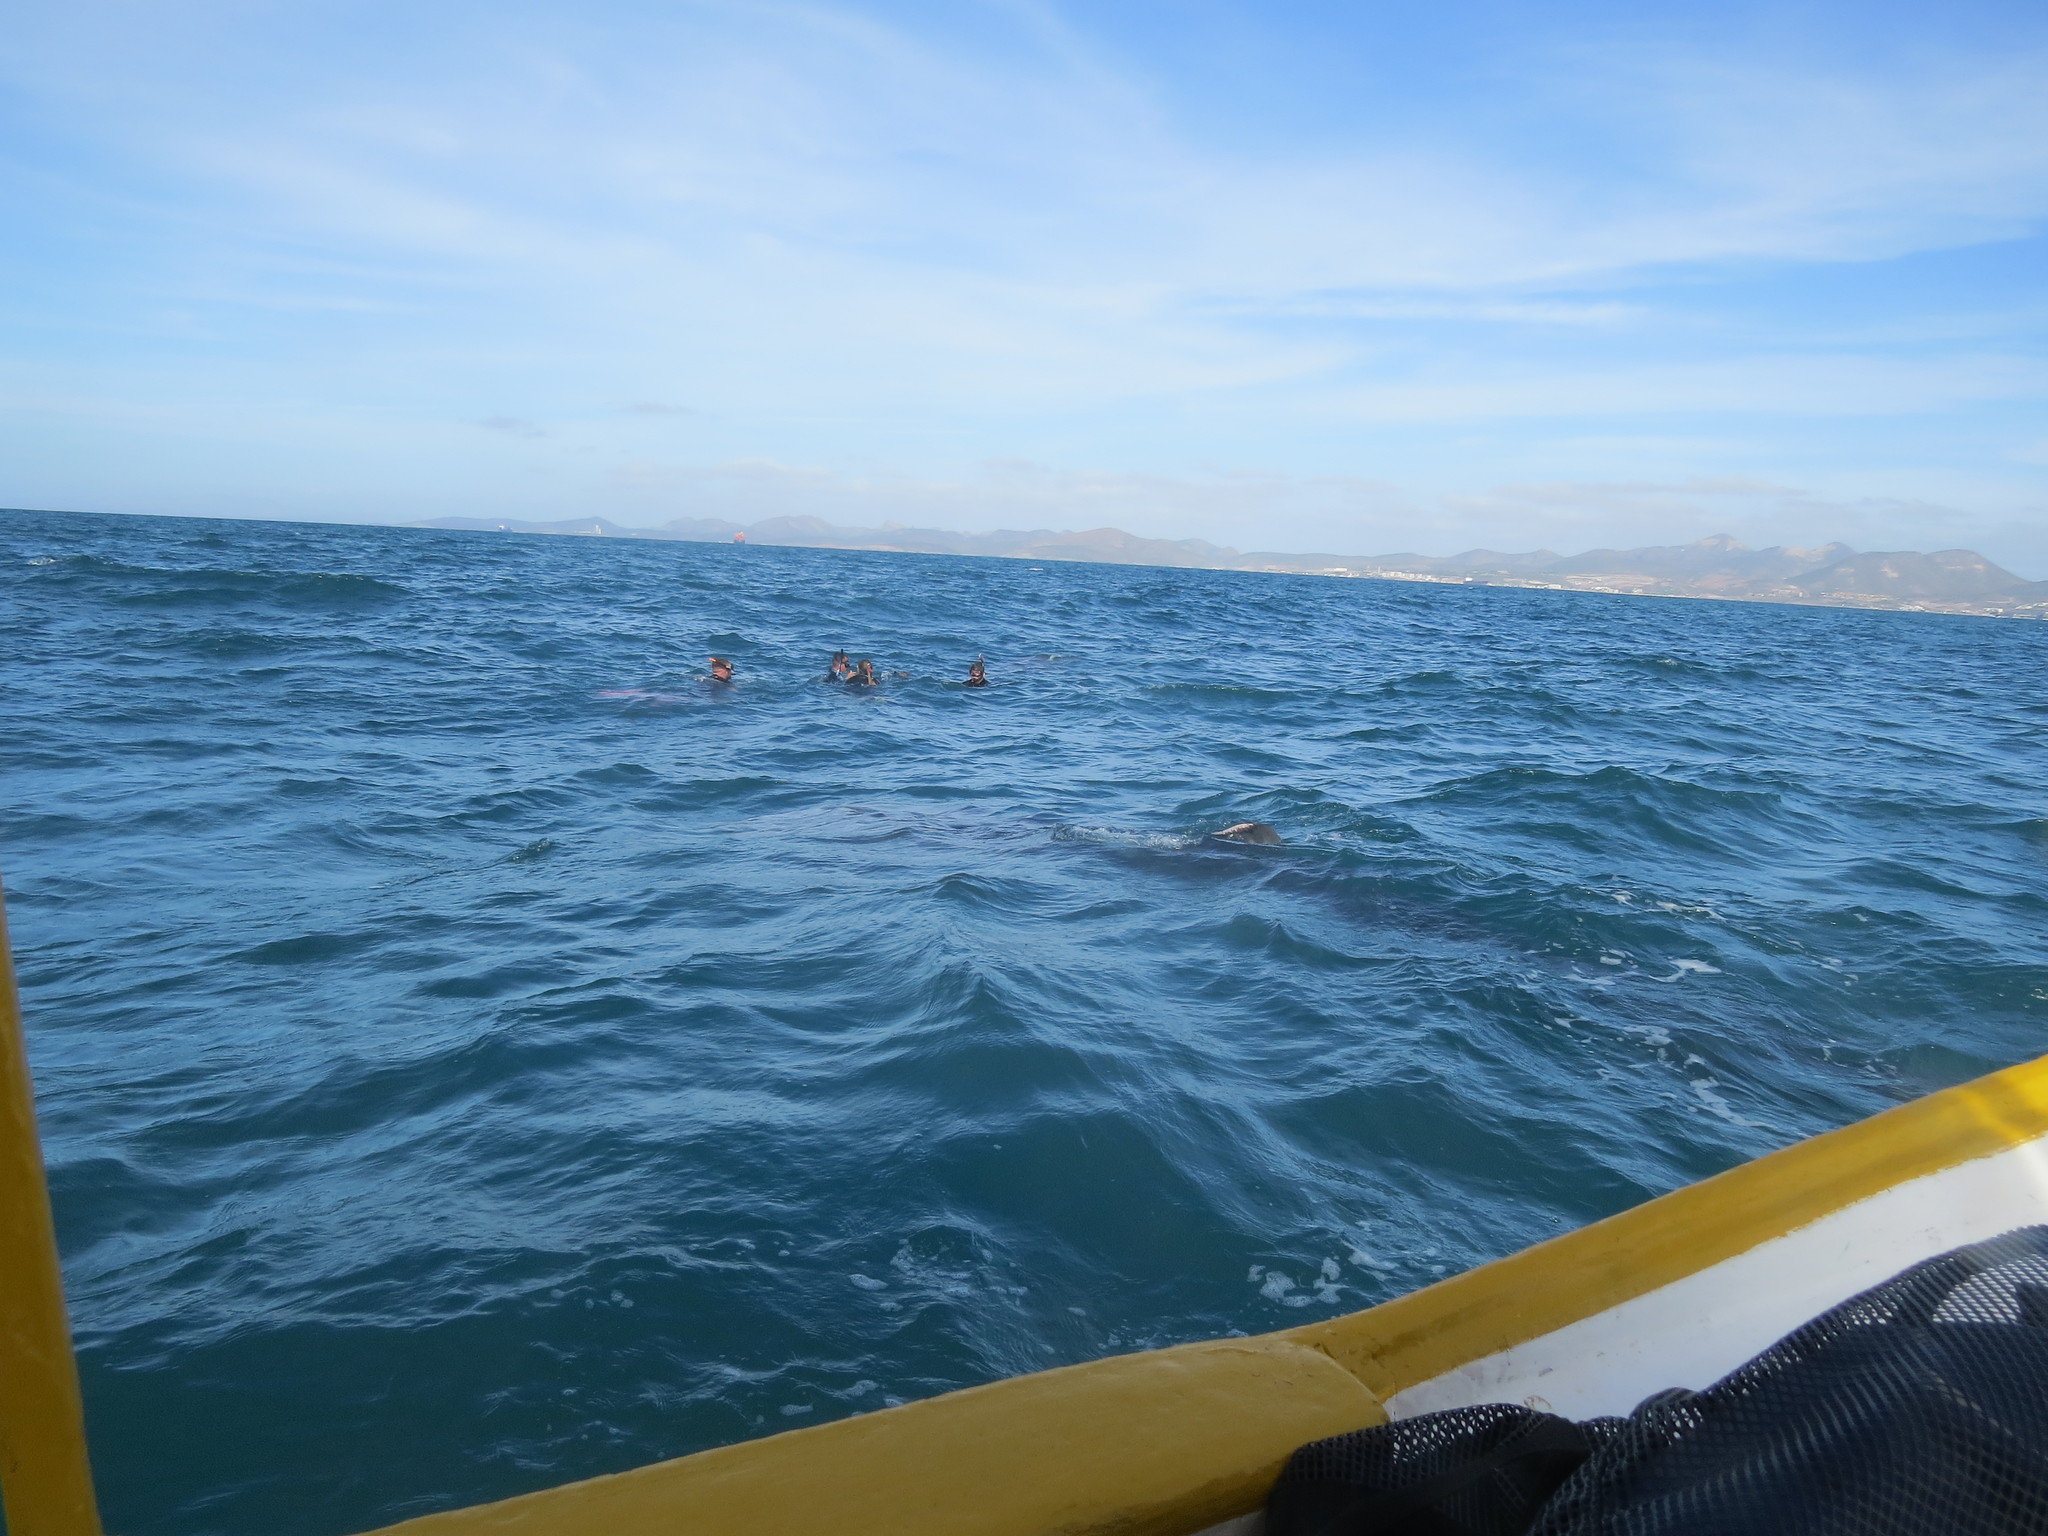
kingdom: Animalia
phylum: Chordata
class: Elasmobranchii
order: Orectolobiformes
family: Rhincodontidae
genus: Rhincodon
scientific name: Rhincodon typus
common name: Whale shark
